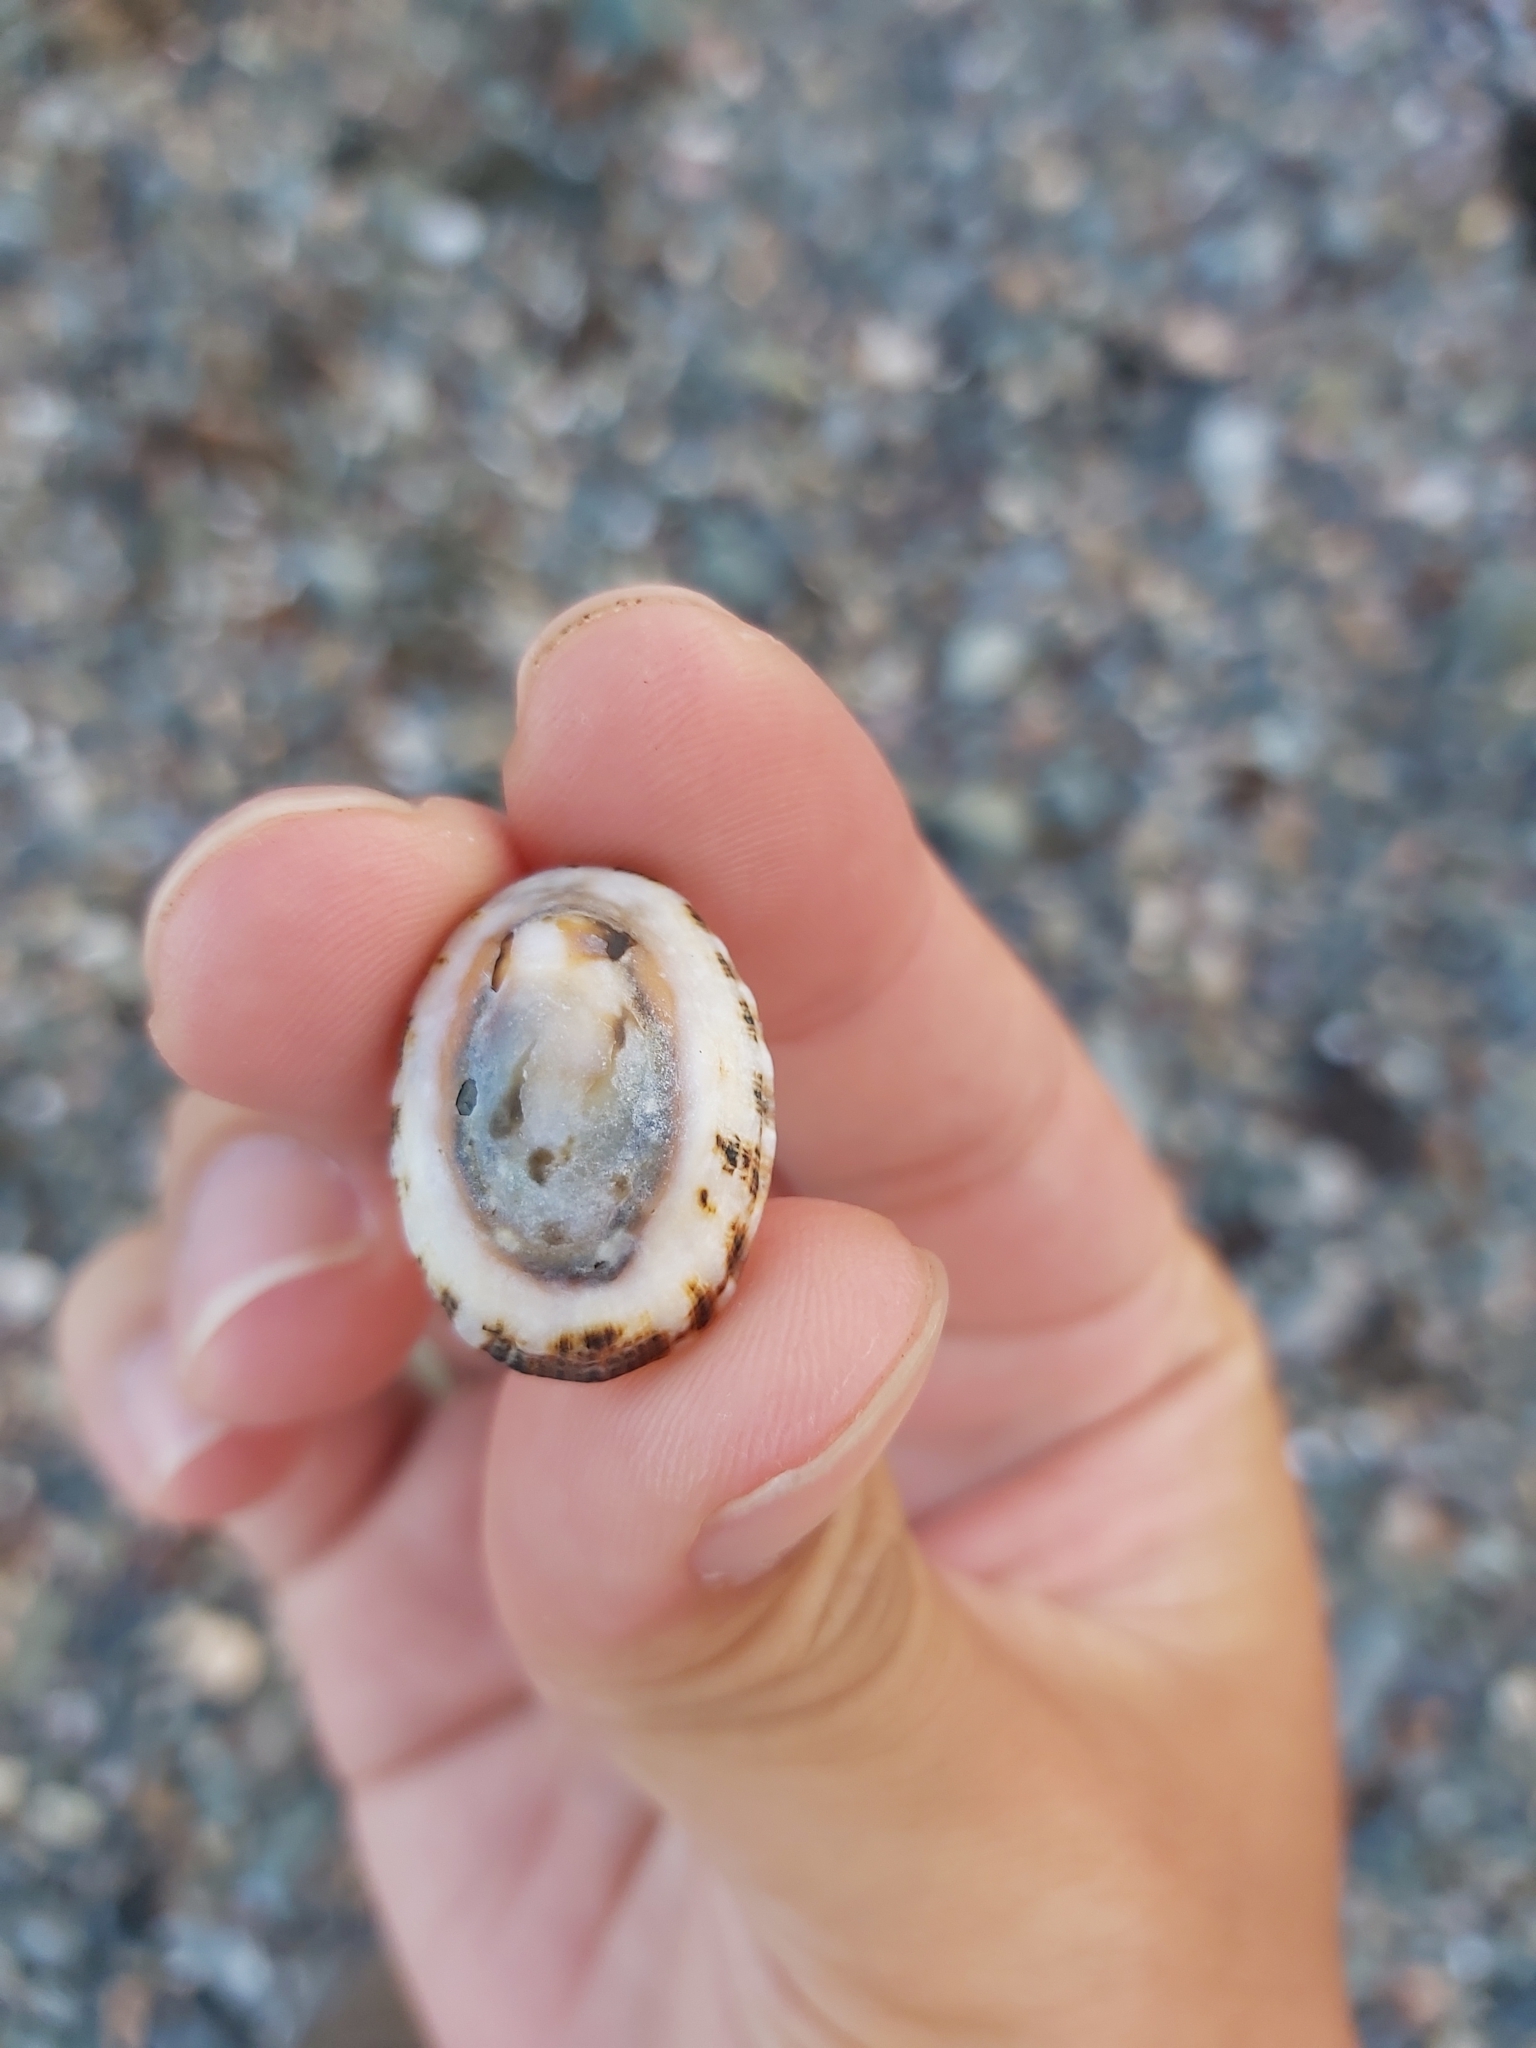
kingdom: Animalia
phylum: Mollusca
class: Gastropoda
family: Patellidae
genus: Scutellastra
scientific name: Scutellastra peronii
